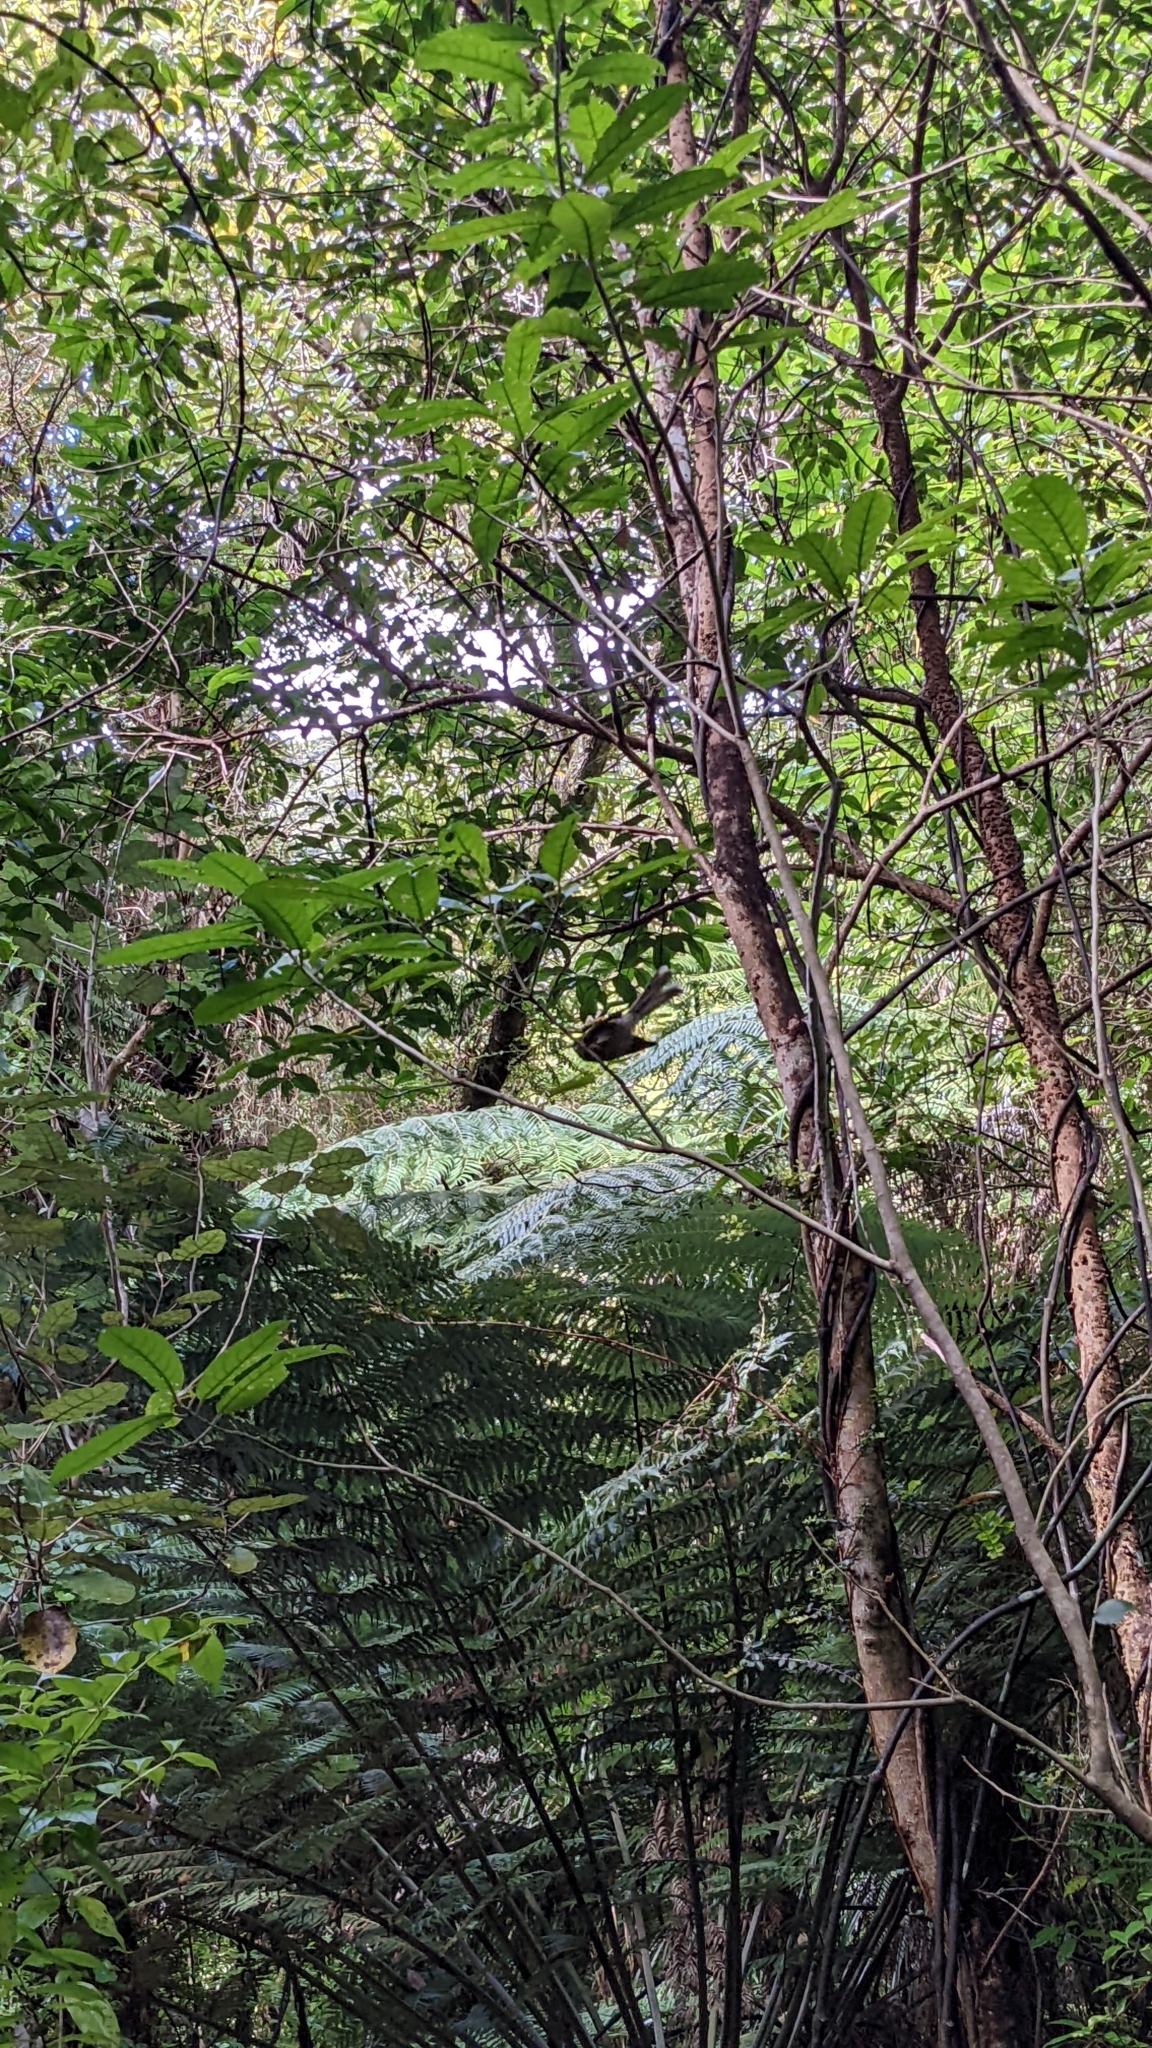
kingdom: Animalia
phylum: Chordata
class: Aves
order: Passeriformes
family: Rhipiduridae
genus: Rhipidura
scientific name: Rhipidura fuliginosa
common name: New zealand fantail
